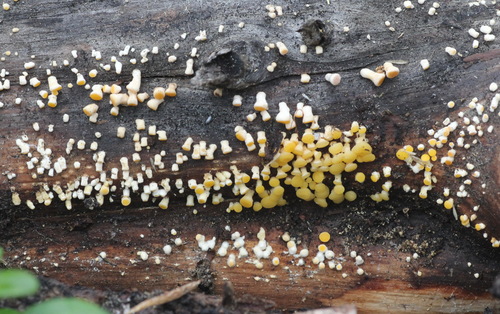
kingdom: Fungi
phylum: Basidiomycota
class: Dacrymycetes
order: Dacrymycetales
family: Dacrymycetaceae
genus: Ditiola
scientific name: Ditiola radicata
